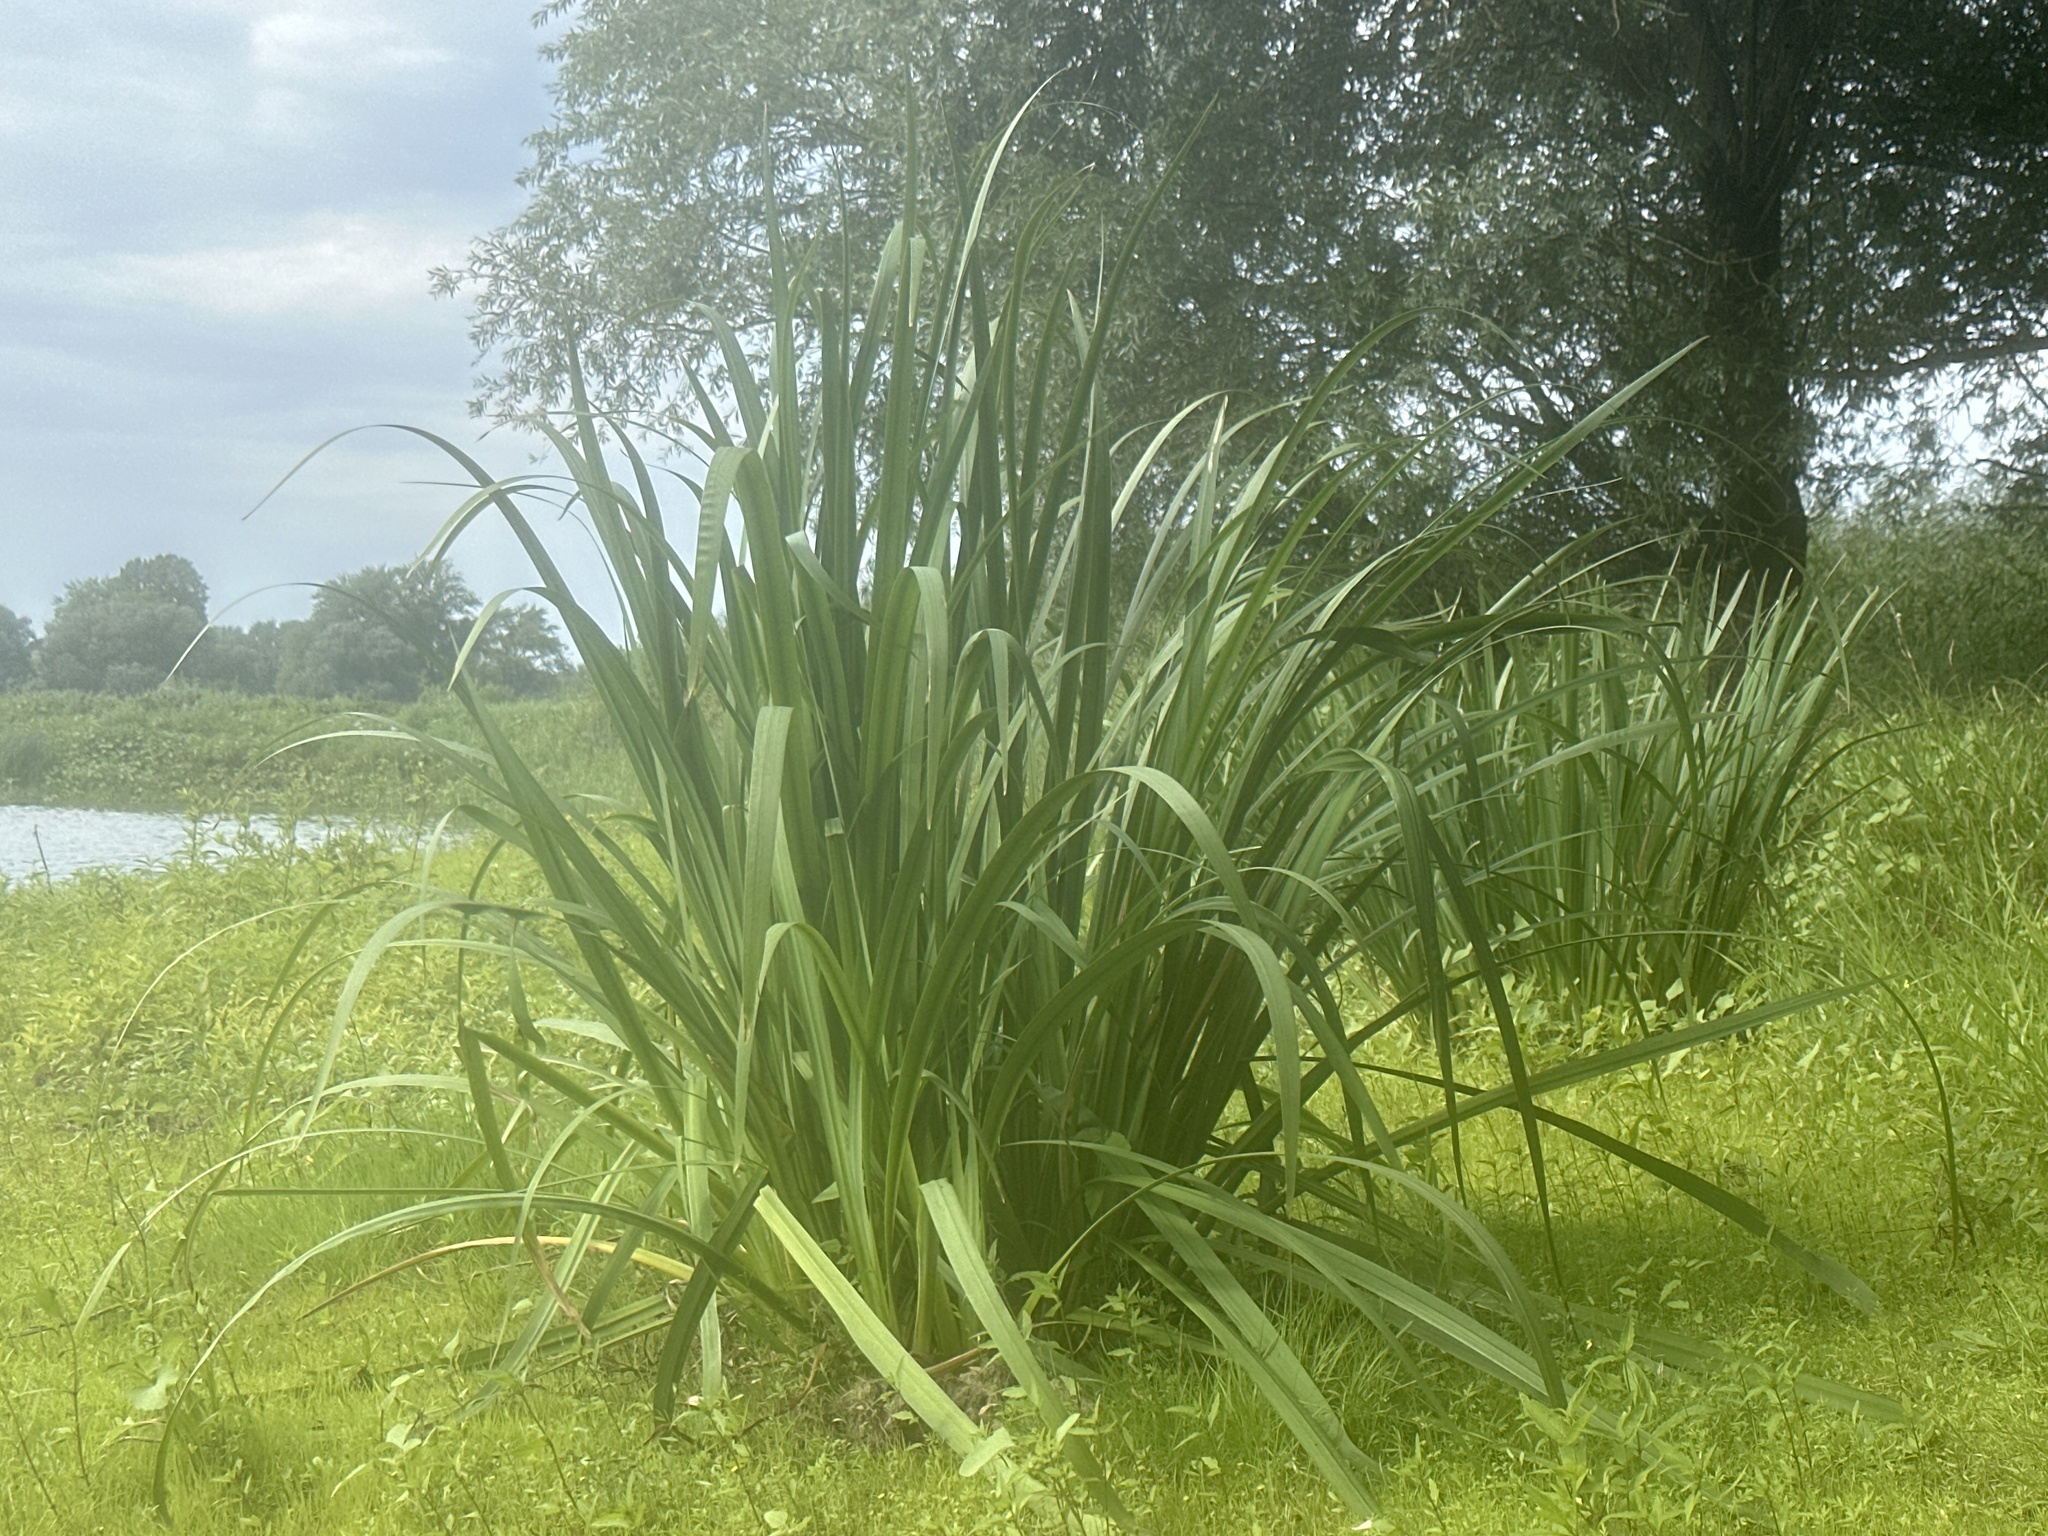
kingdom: Plantae
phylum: Tracheophyta
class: Liliopsida
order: Asparagales
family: Iridaceae
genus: Iris
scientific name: Iris pseudacorus
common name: Yellow flag
